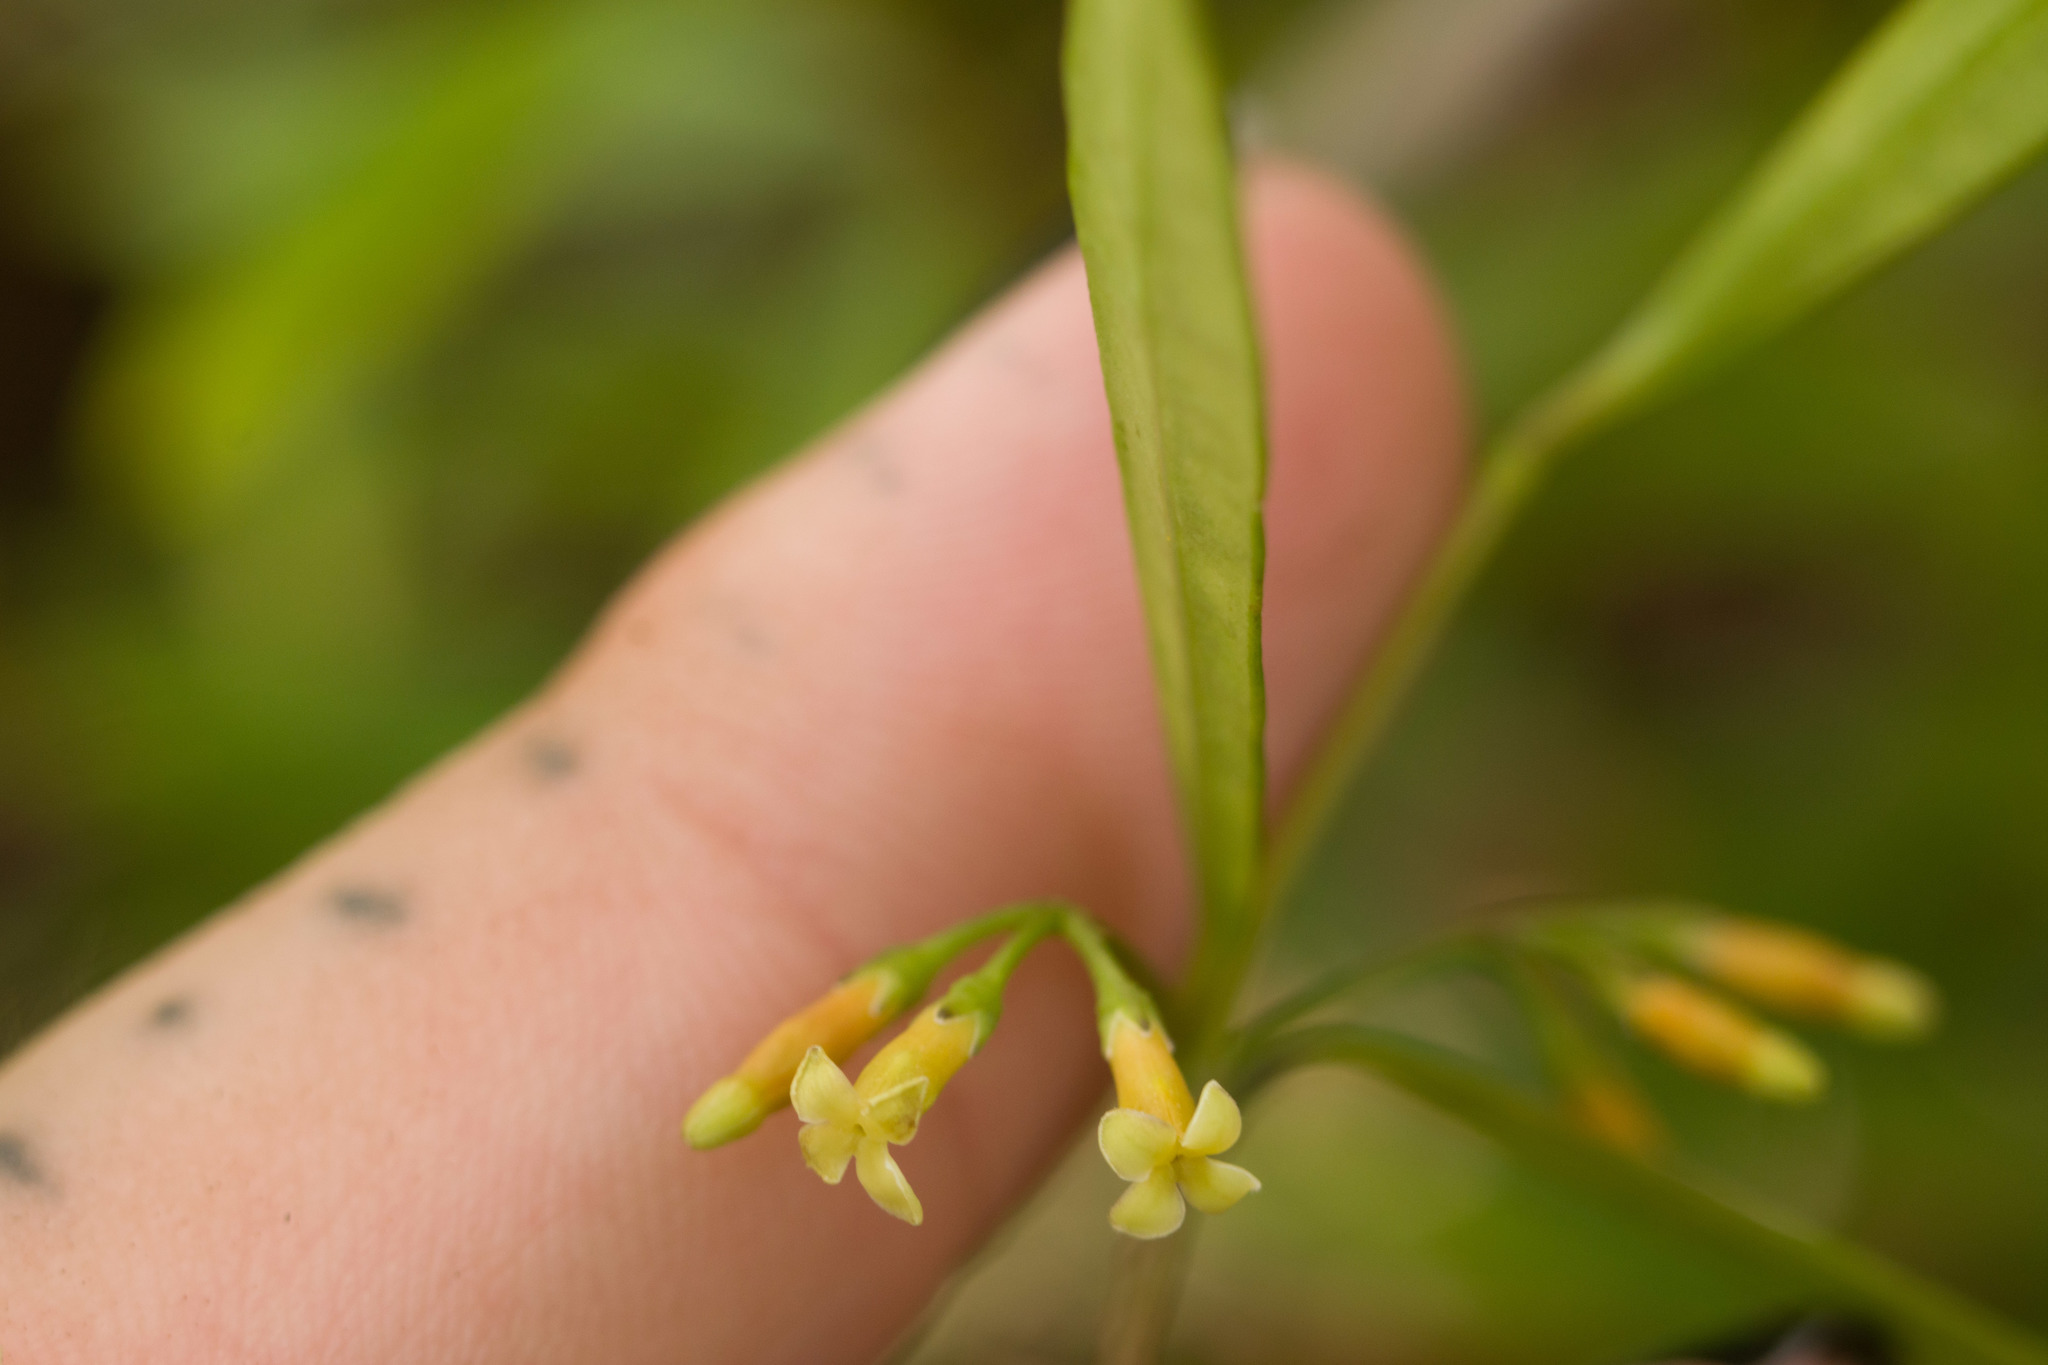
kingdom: Plantae
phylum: Tracheophyta
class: Magnoliopsida
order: Gentianales
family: Apocynaceae
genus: Alyxia
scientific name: Alyxia stellata
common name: Maile
